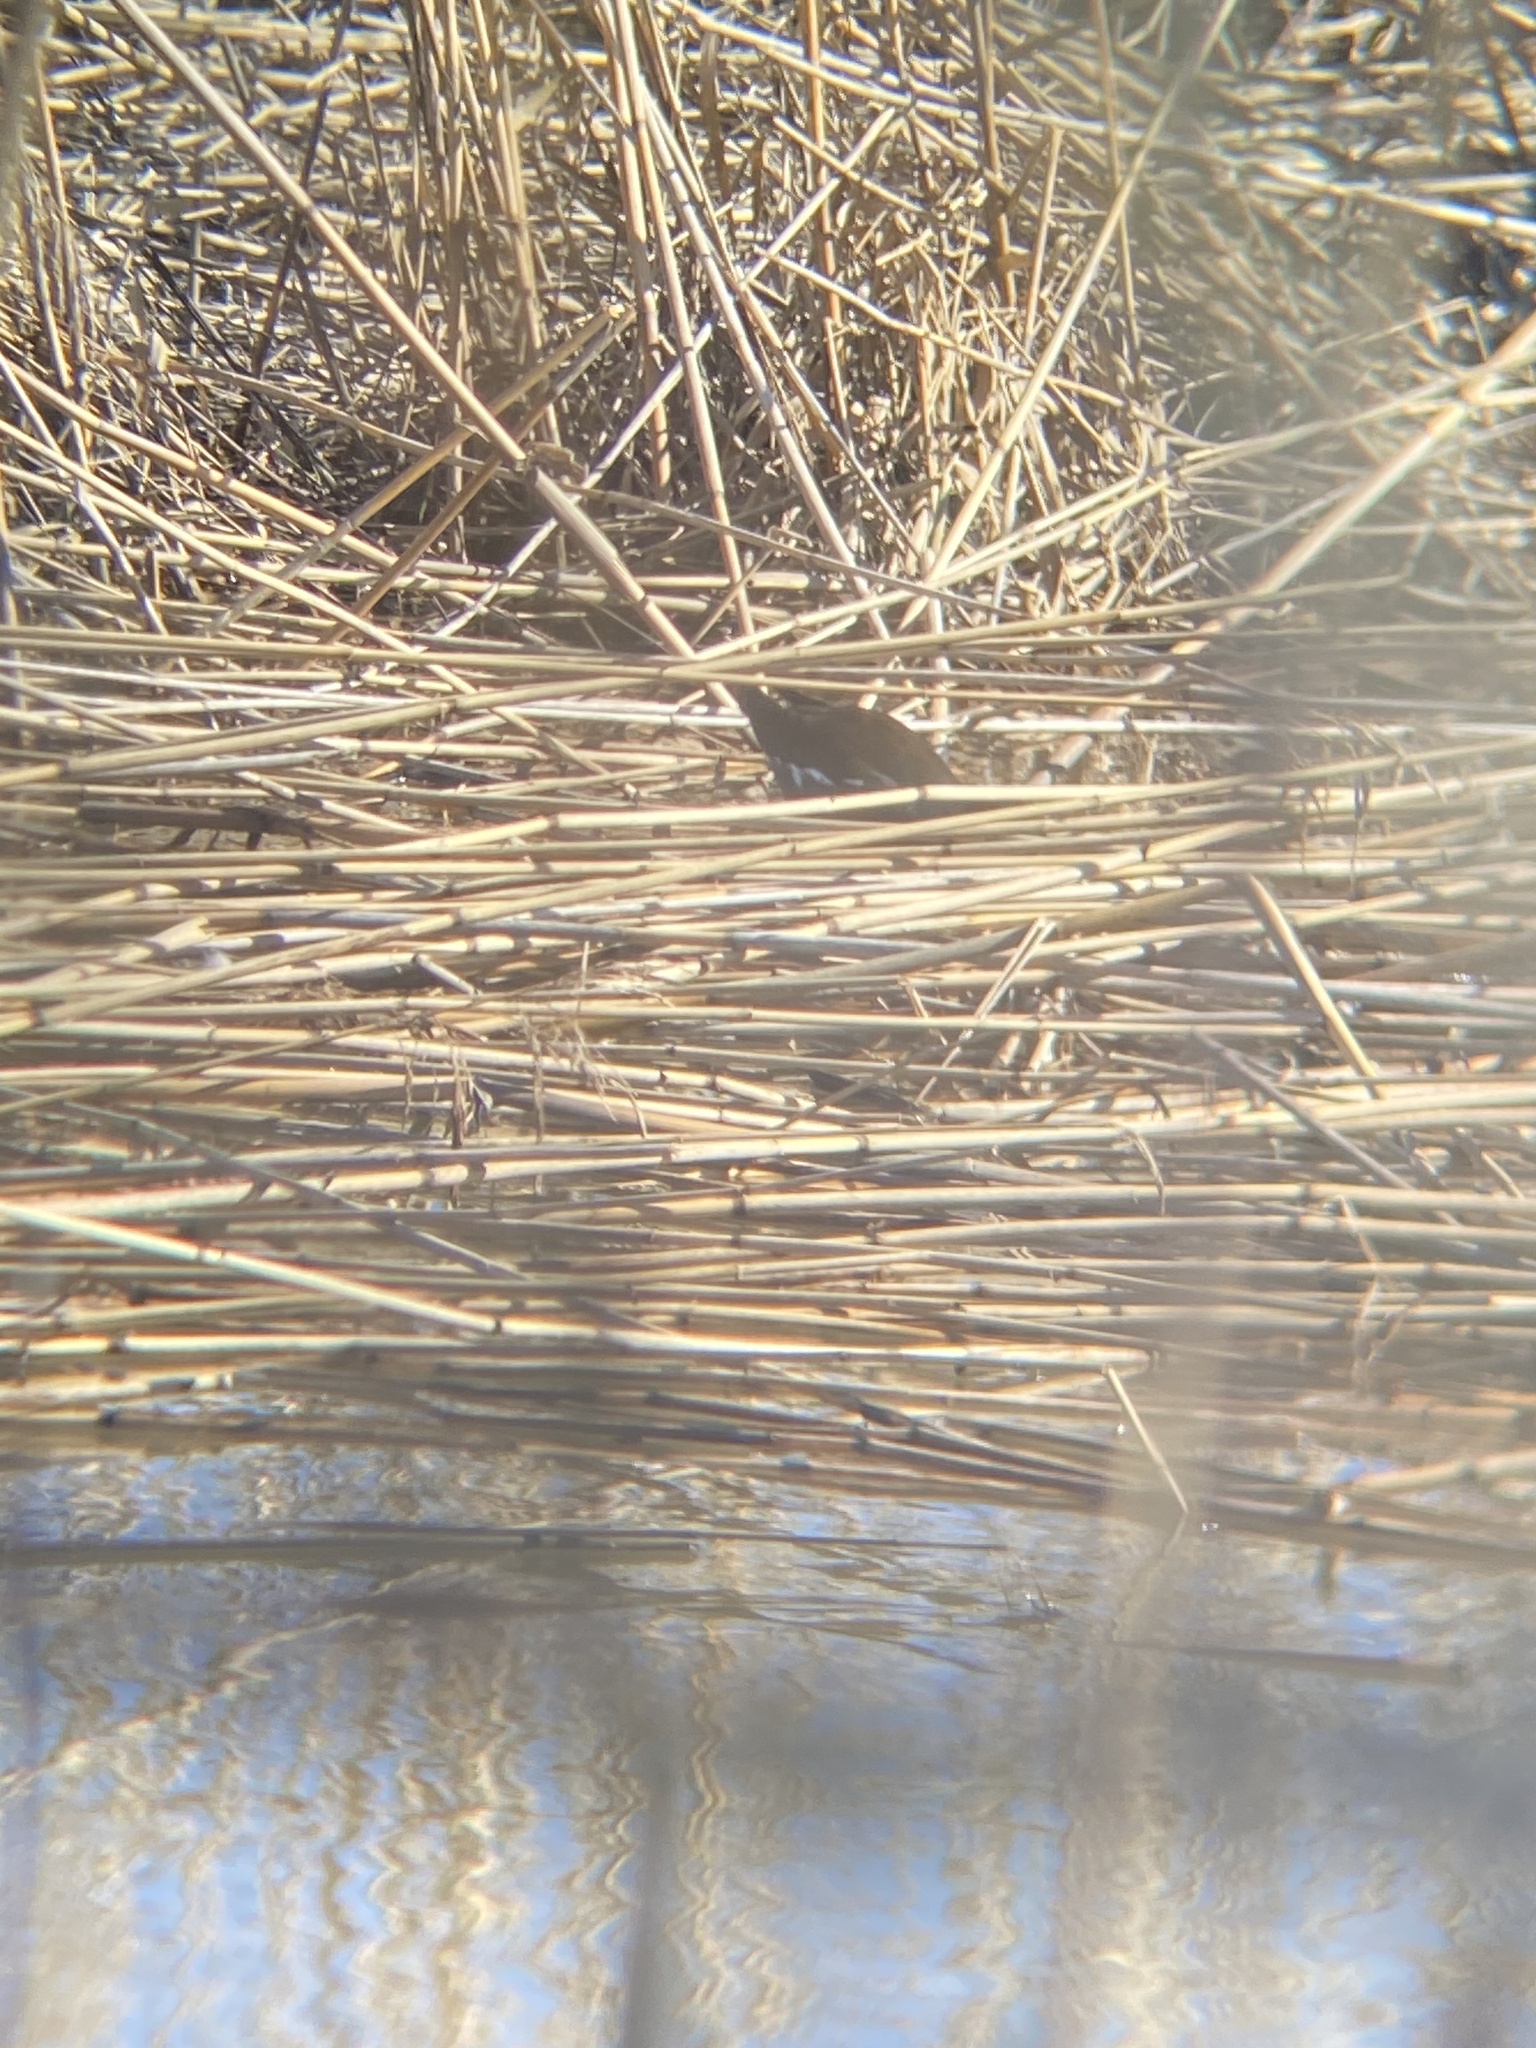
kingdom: Animalia
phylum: Chordata
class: Aves
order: Gruiformes
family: Rallidae
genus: Gallinula
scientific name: Gallinula chloropus
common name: Common moorhen
